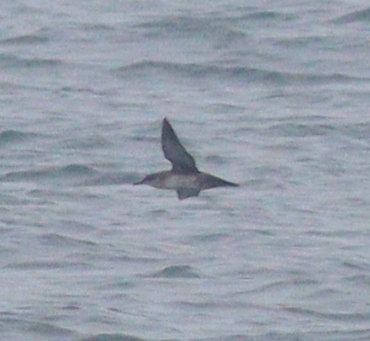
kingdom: Animalia
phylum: Chordata
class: Aves
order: Procellariiformes
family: Procellariidae
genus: Puffinus
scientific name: Puffinus mauretanicus
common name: Balearic shearwater
